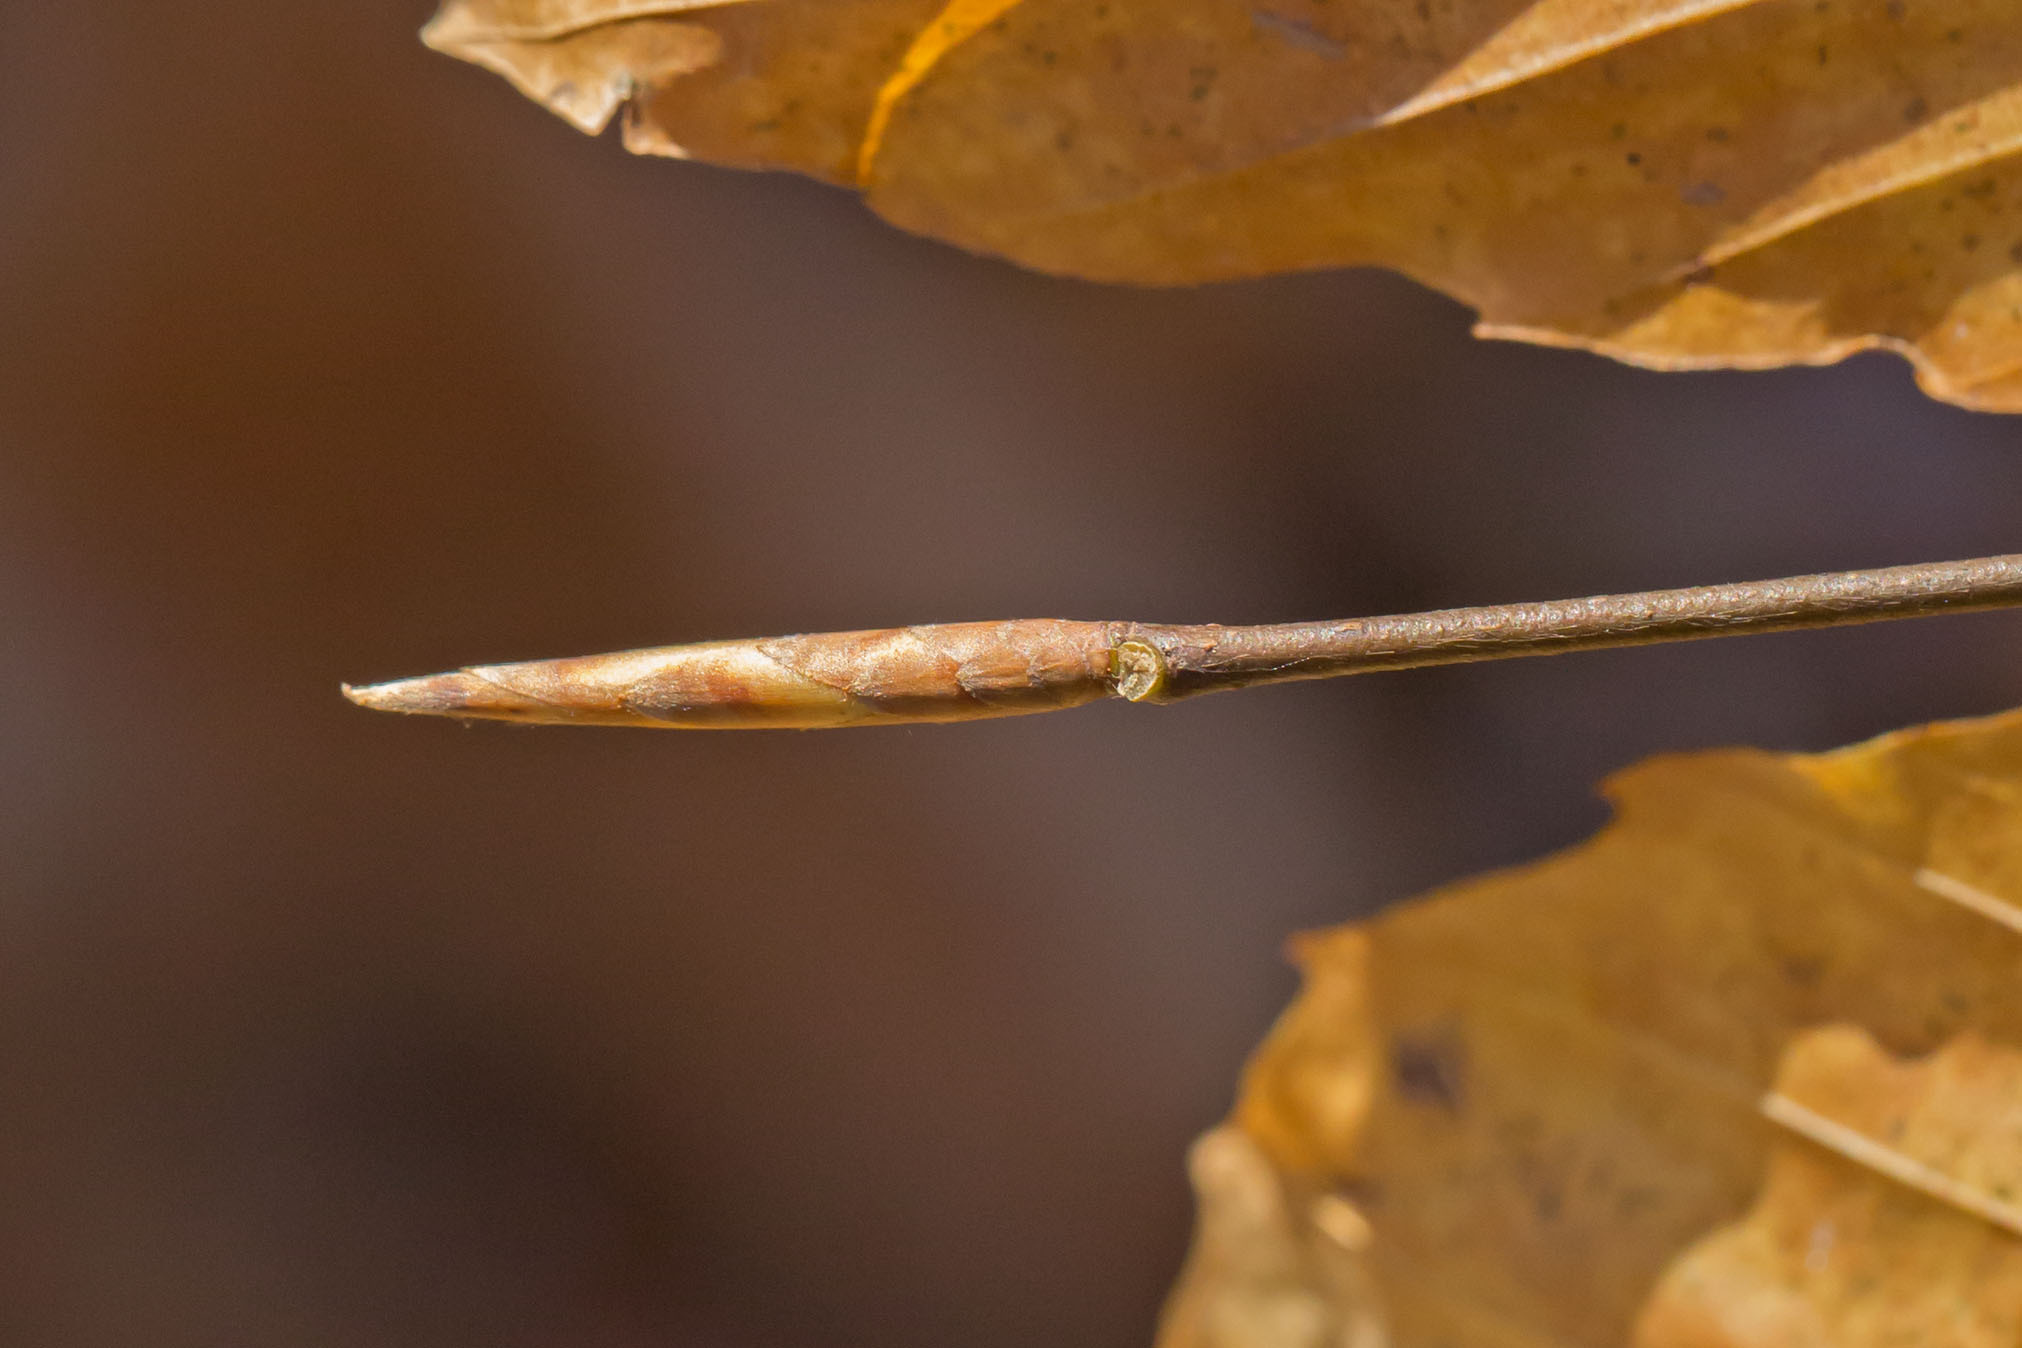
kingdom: Plantae
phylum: Tracheophyta
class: Magnoliopsida
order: Fagales
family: Fagaceae
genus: Fagus
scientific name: Fagus grandifolia
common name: American beech
